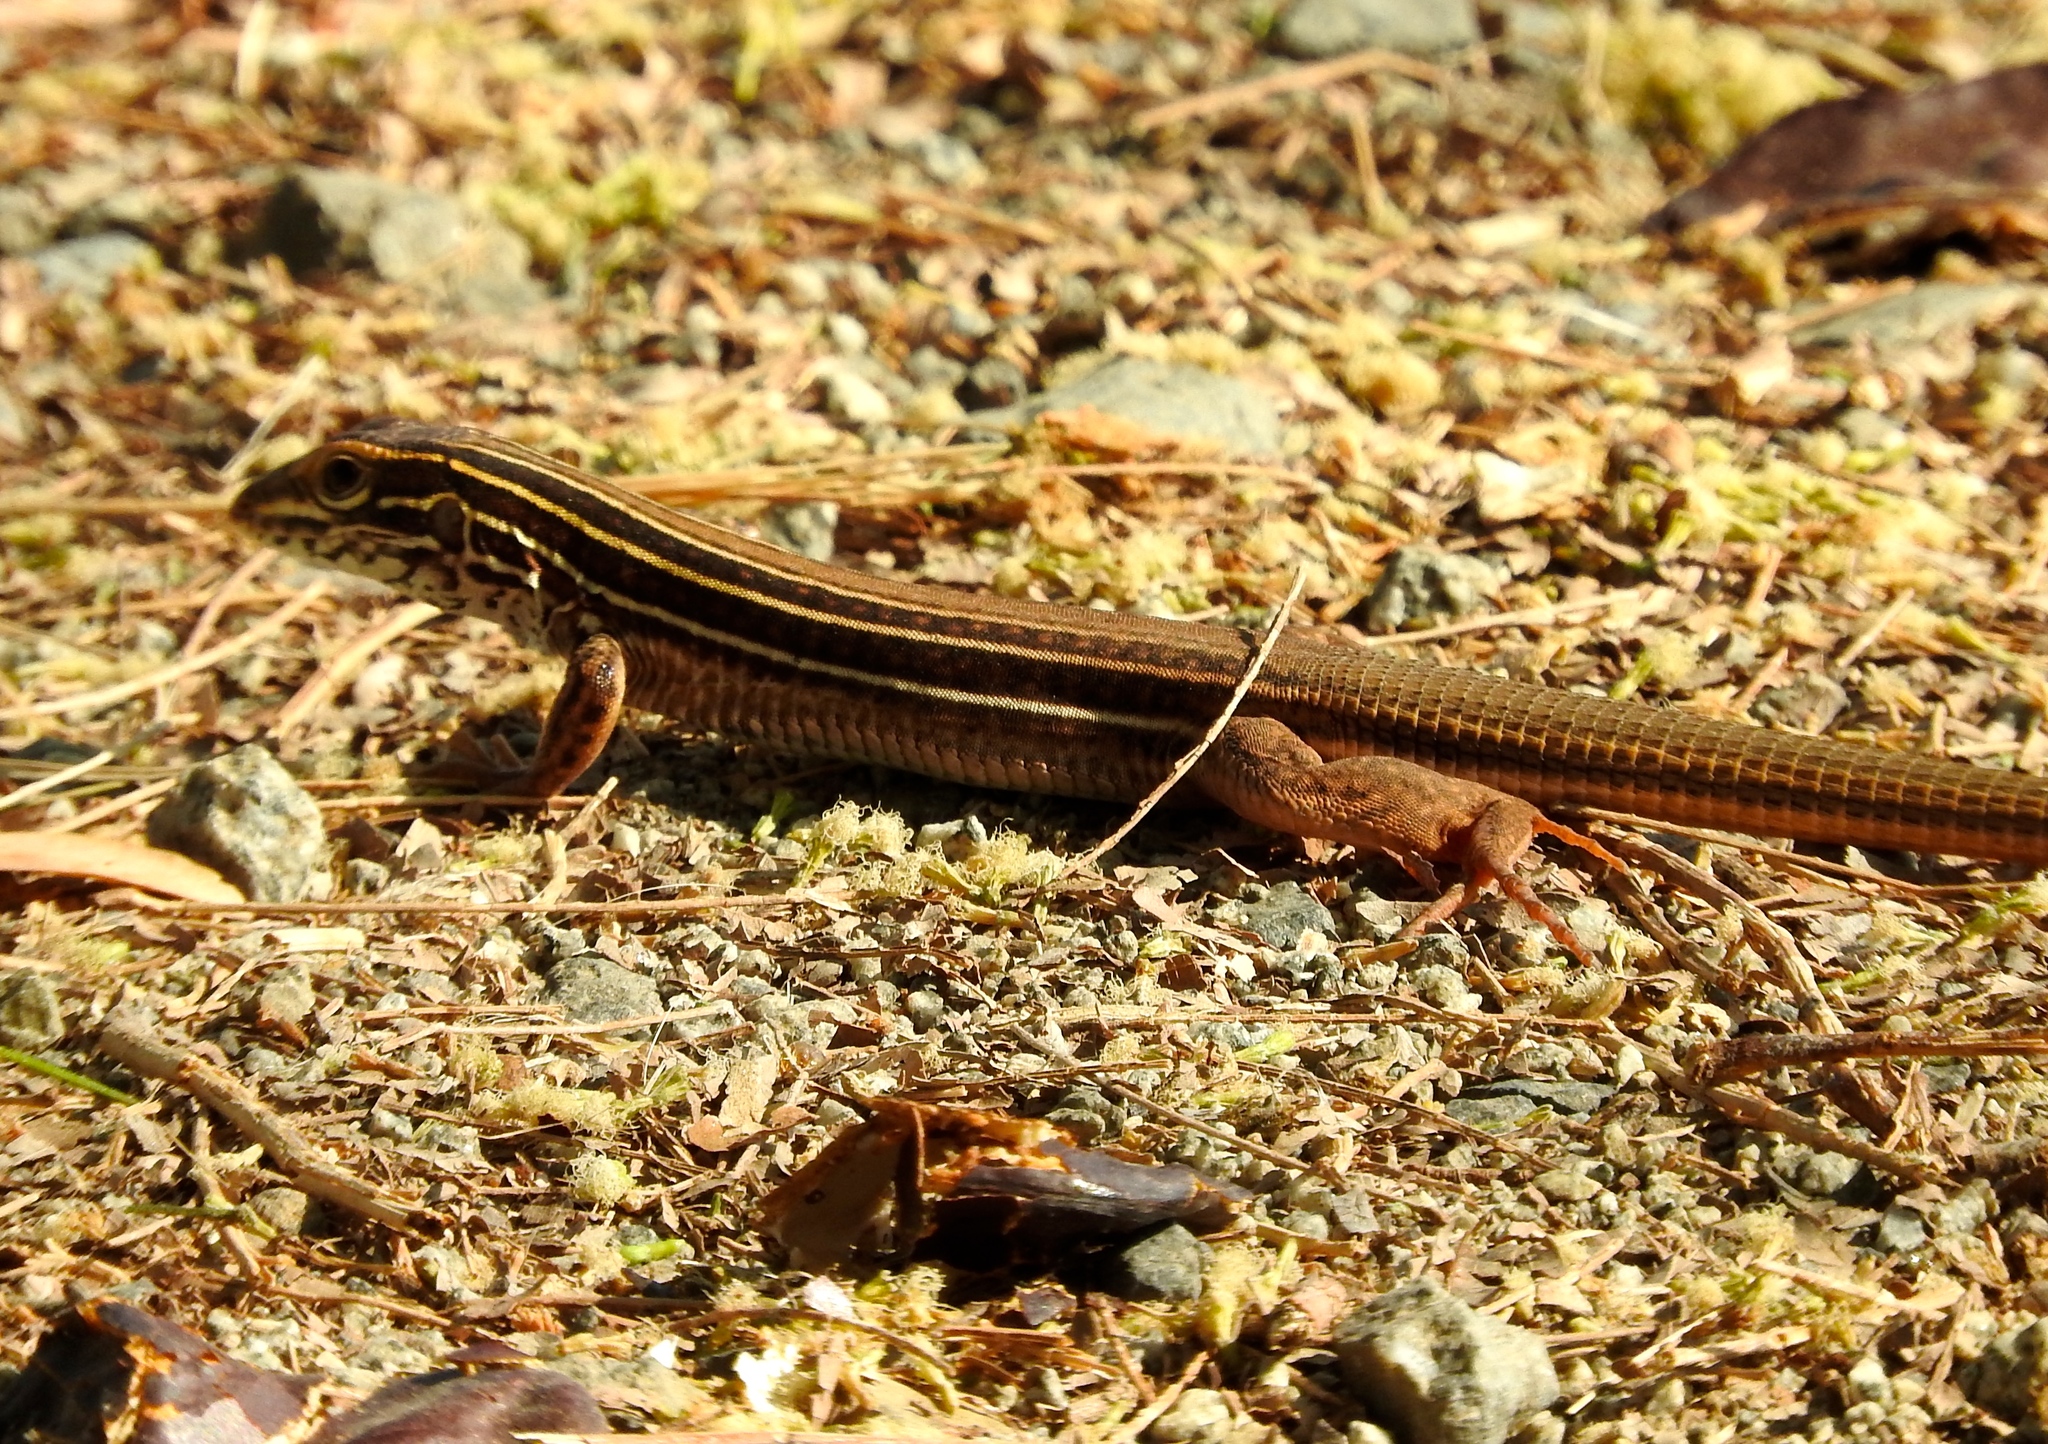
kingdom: Animalia
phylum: Chordata
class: Squamata
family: Teiidae
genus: Aspidoscelis
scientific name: Aspidoscelis costatus
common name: Western mexico whiptail
